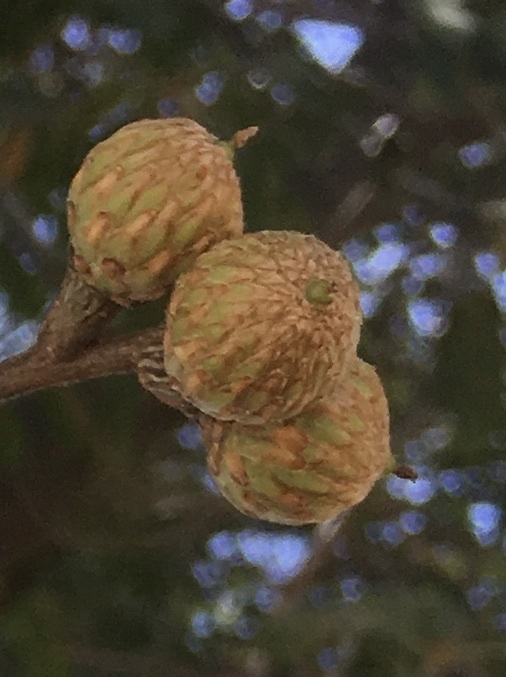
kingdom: Plantae
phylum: Tracheophyta
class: Magnoliopsida
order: Fagales
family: Fagaceae
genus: Quercus
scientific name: Quercus kelloggii
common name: California black oak
